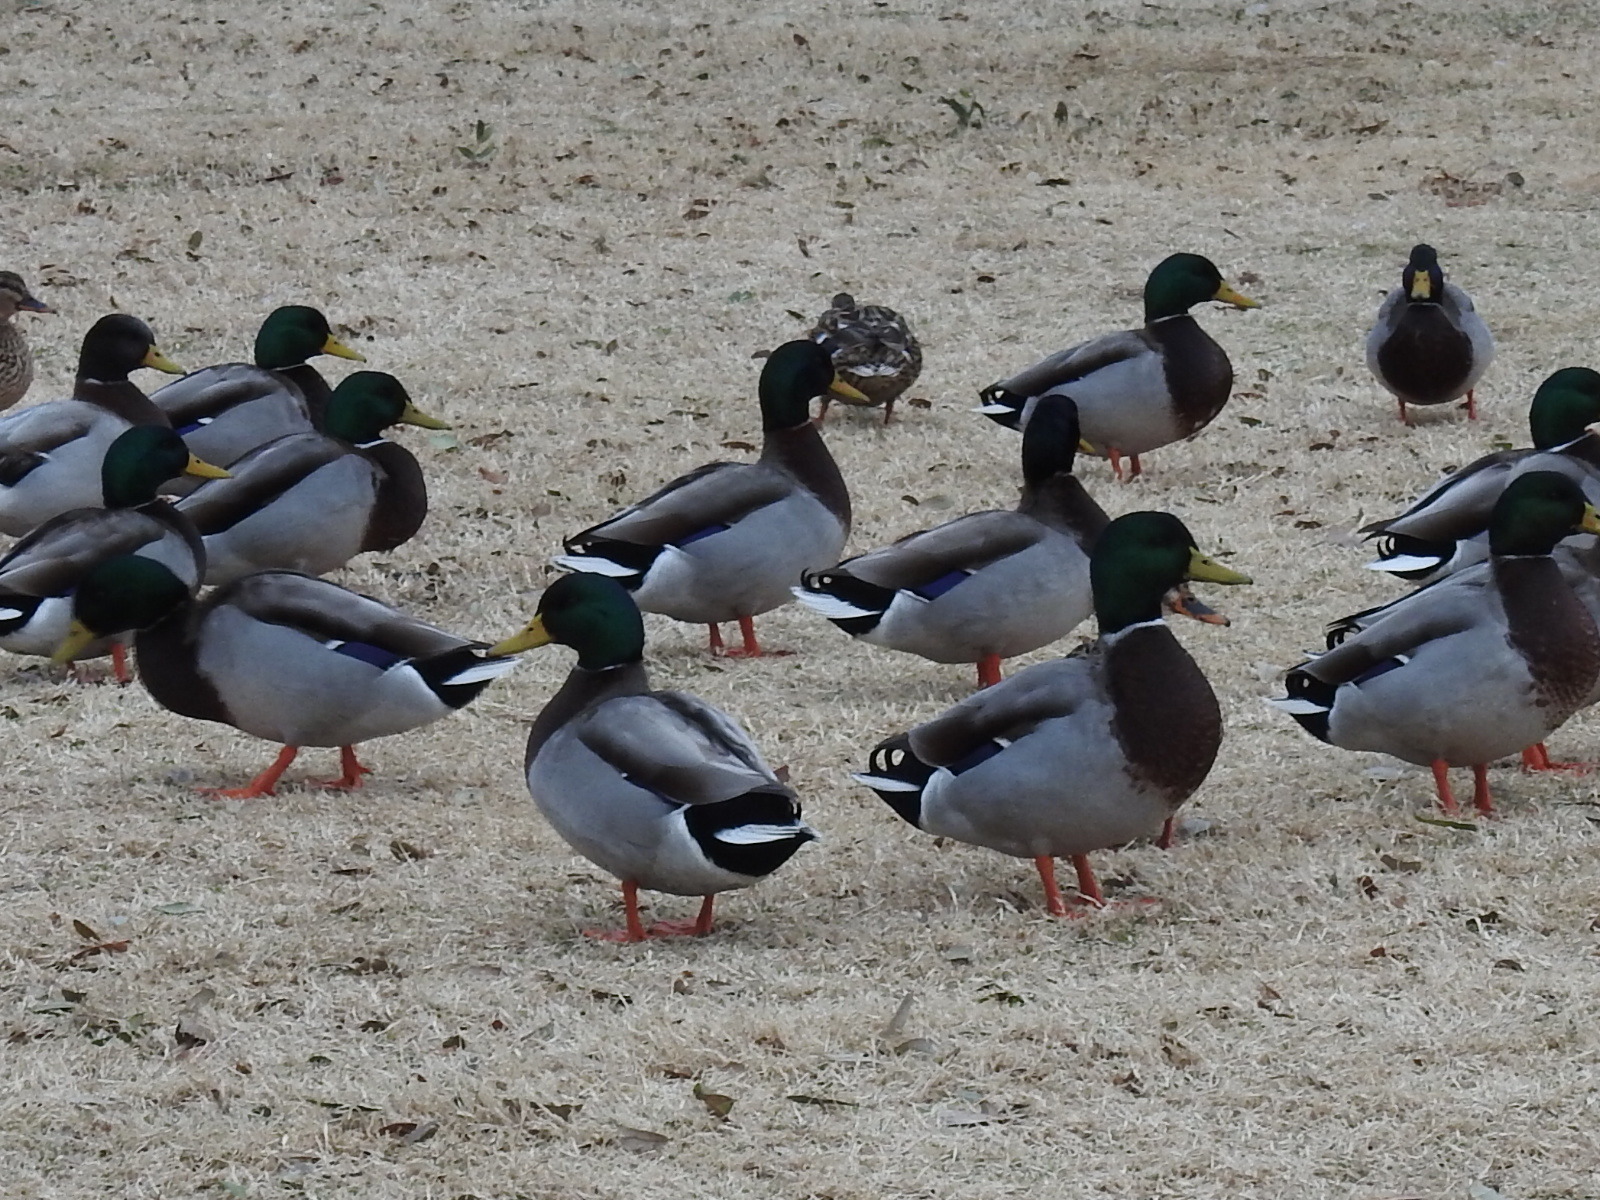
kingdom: Animalia
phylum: Chordata
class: Aves
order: Anseriformes
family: Anatidae
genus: Anas
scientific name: Anas platyrhynchos
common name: Mallard
